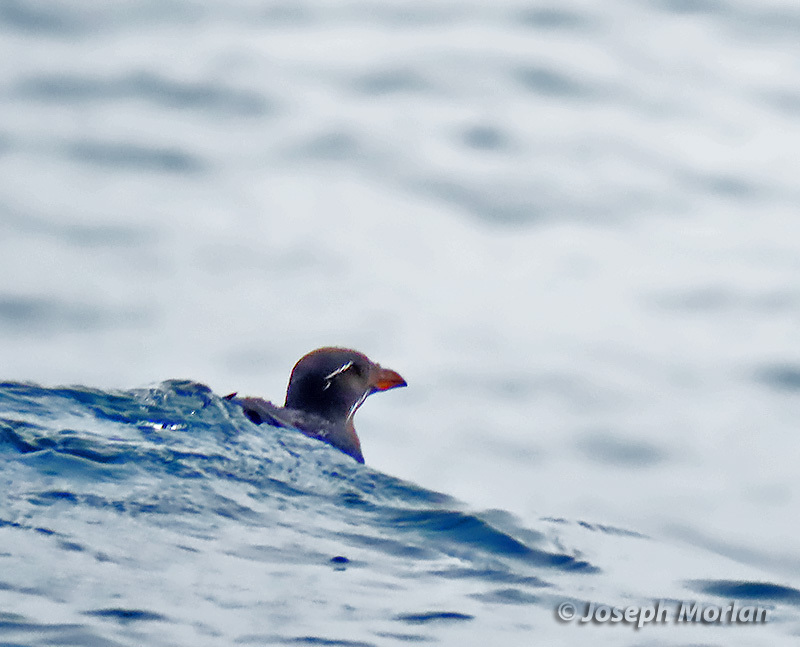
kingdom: Animalia
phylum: Chordata
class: Aves
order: Charadriiformes
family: Alcidae
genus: Cerorhinca
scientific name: Cerorhinca monocerata
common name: Rhinoceros auklet
